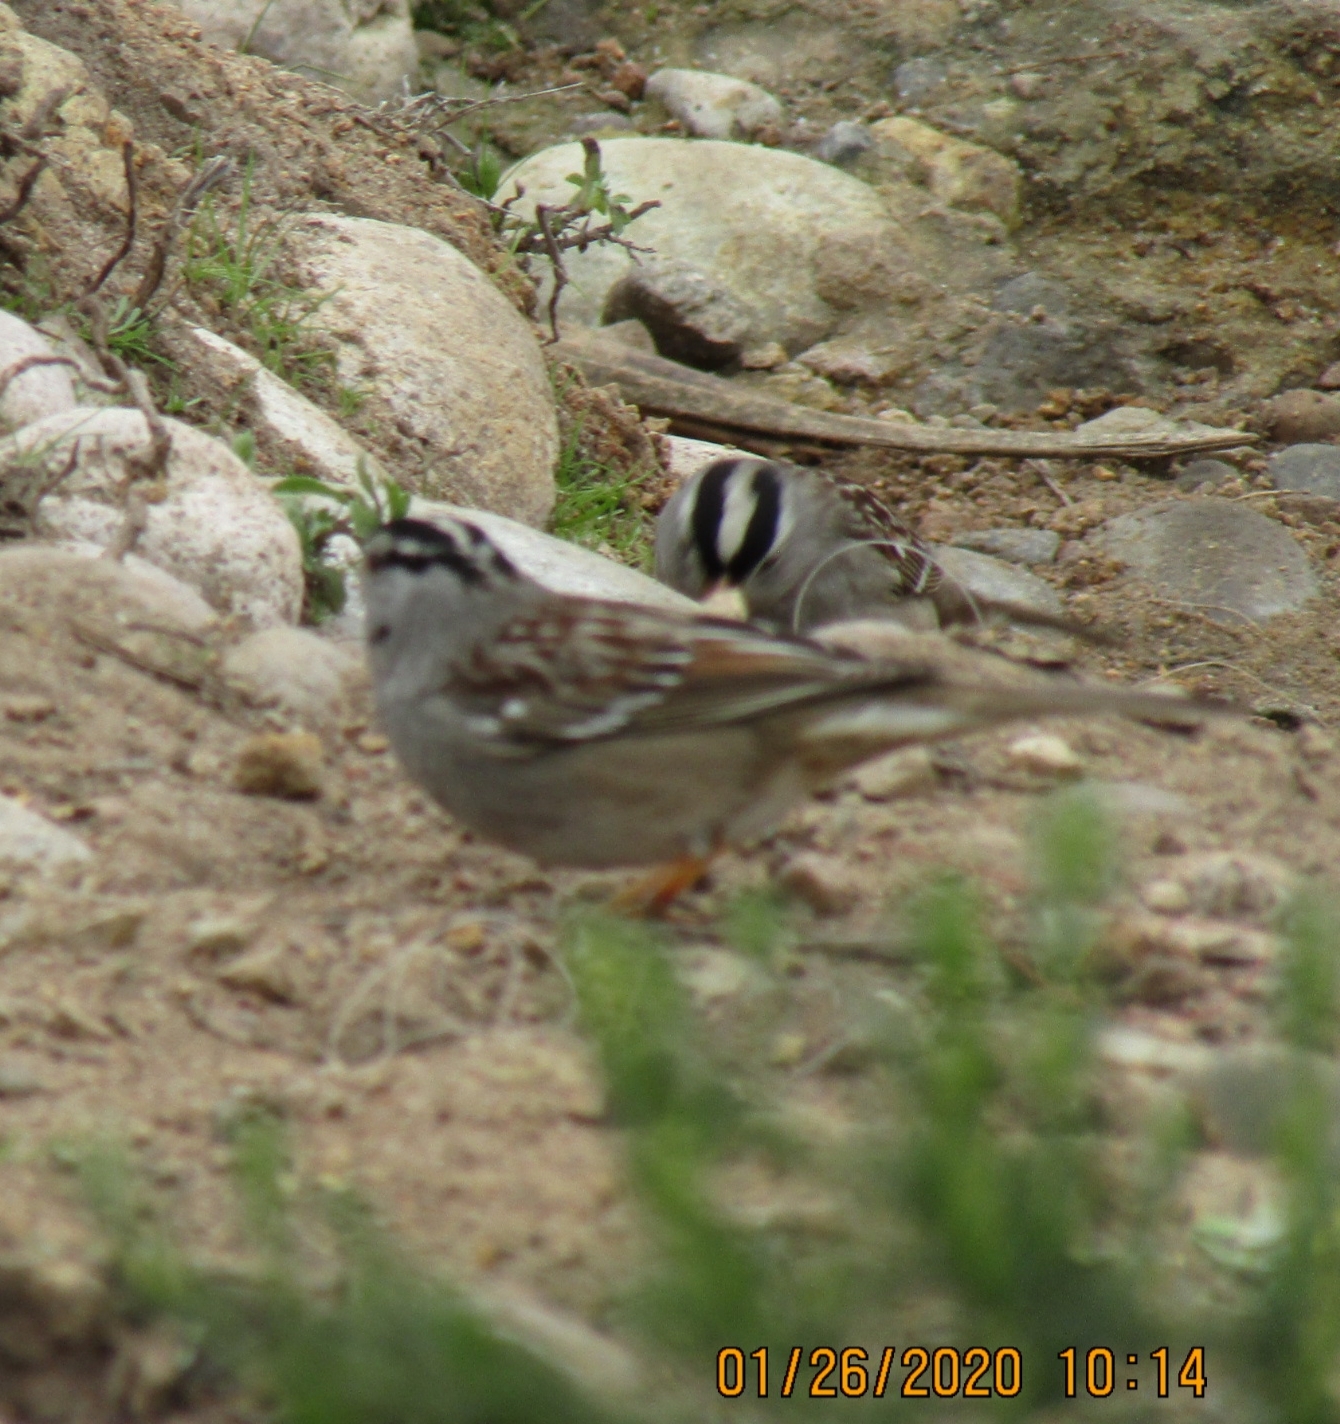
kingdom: Animalia
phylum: Chordata
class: Aves
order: Passeriformes
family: Passerellidae
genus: Zonotrichia
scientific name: Zonotrichia leucophrys
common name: White-crowned sparrow
